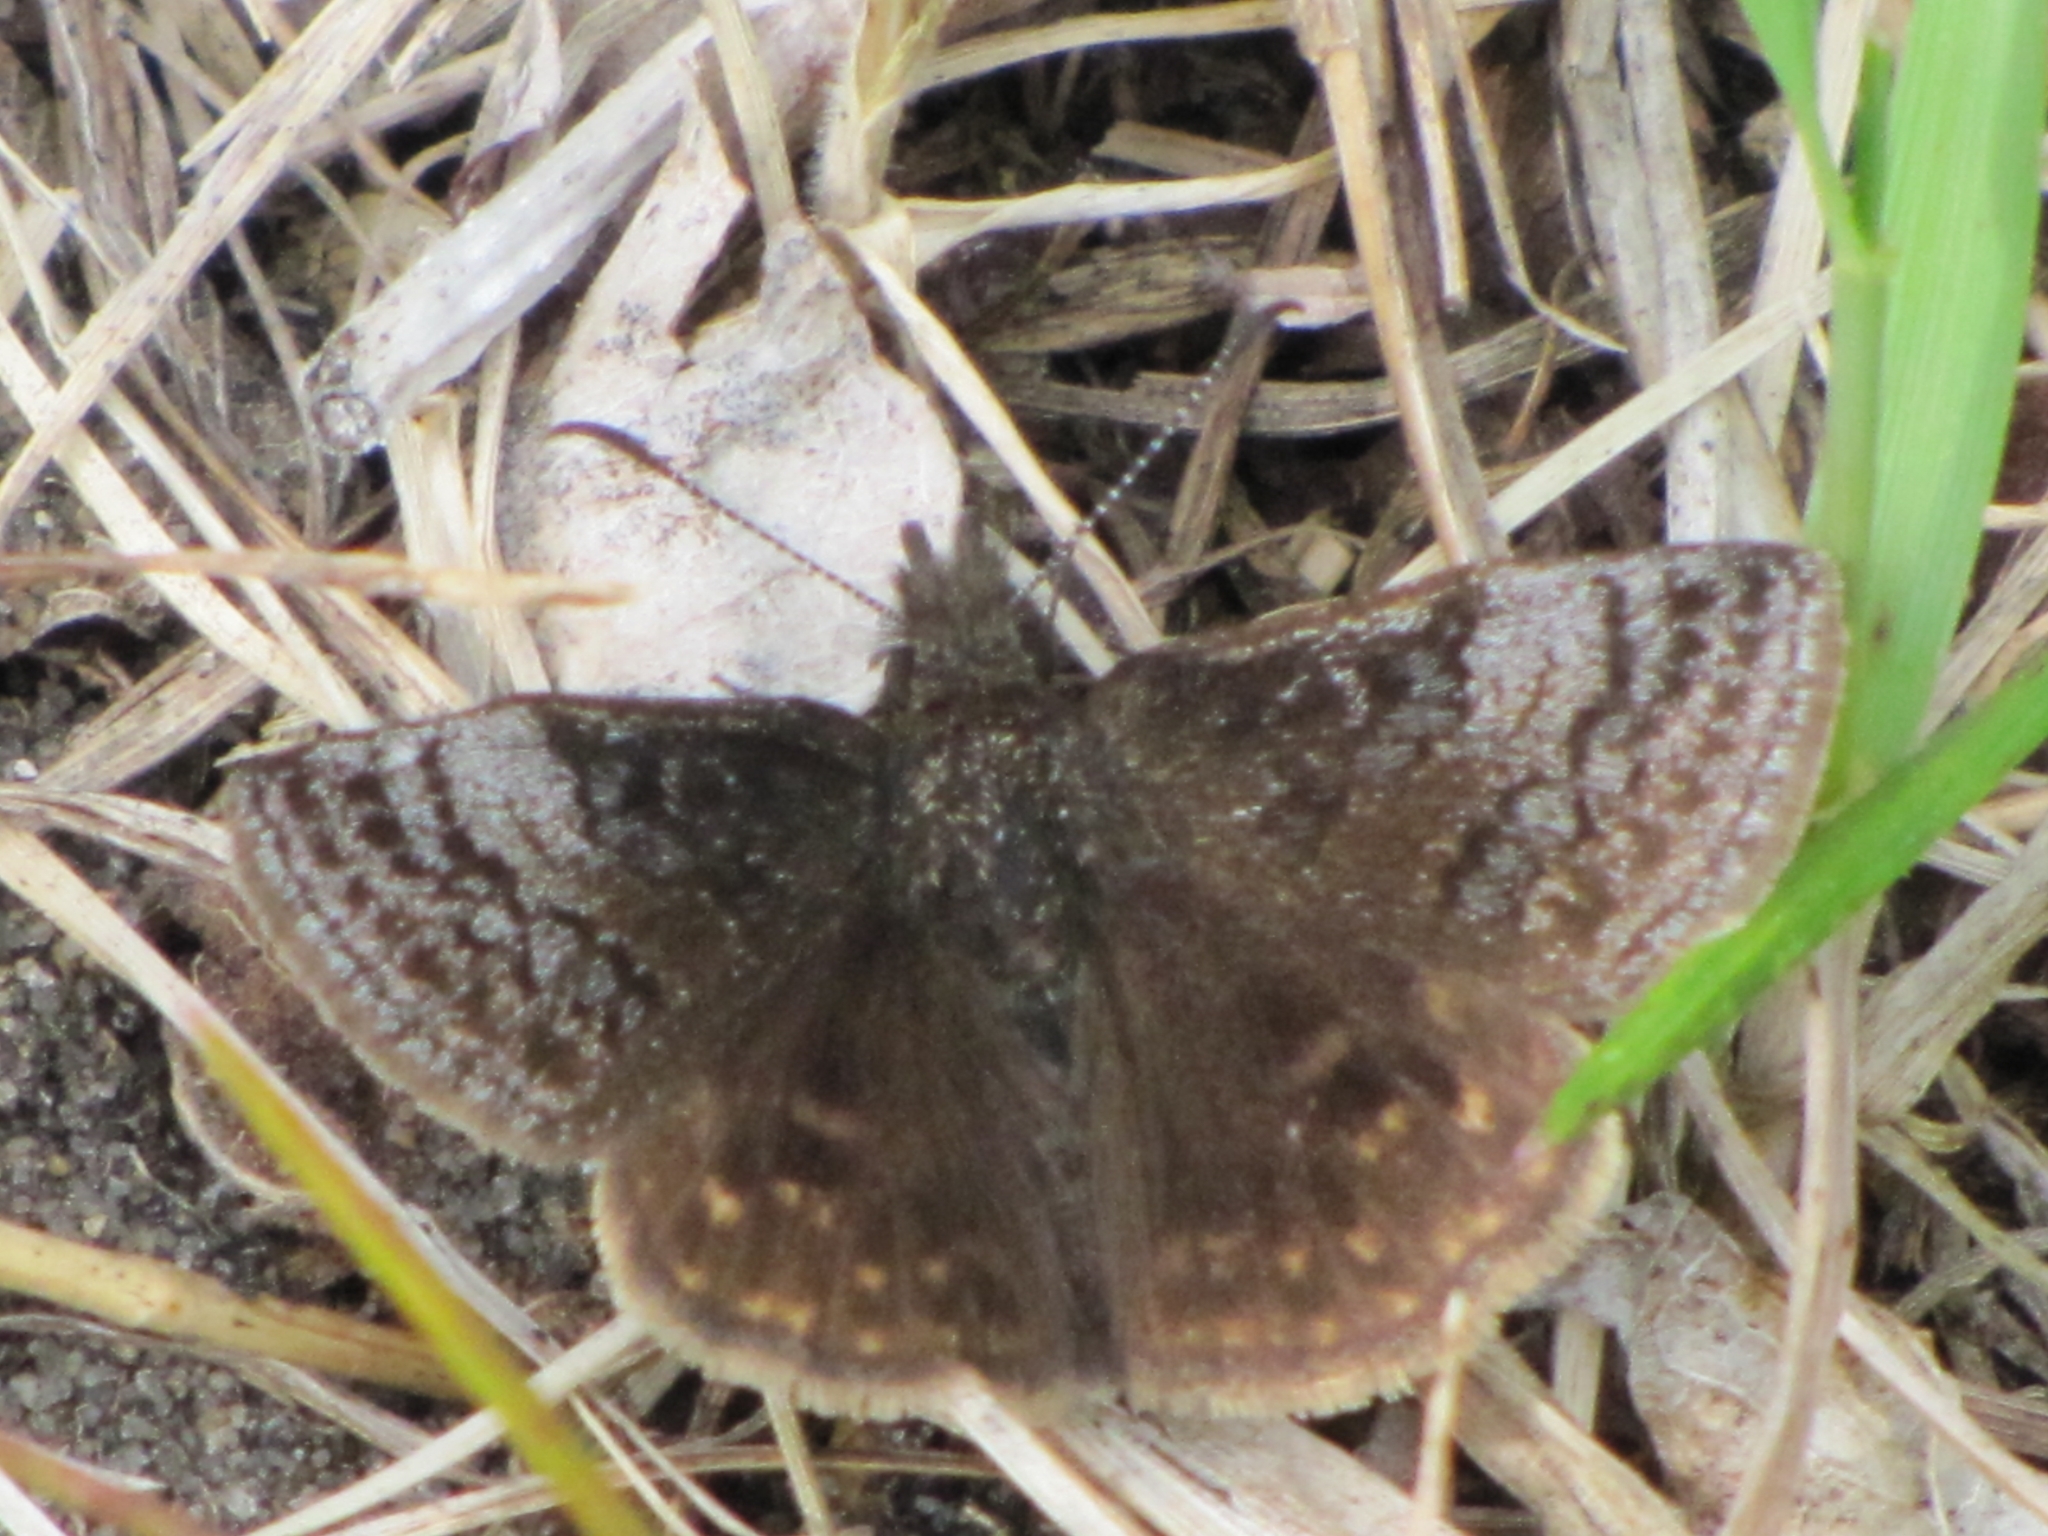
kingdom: Animalia
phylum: Arthropoda
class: Insecta
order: Lepidoptera
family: Hesperiidae
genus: Erynnis
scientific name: Erynnis icelus
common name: Dreamy duskywing
